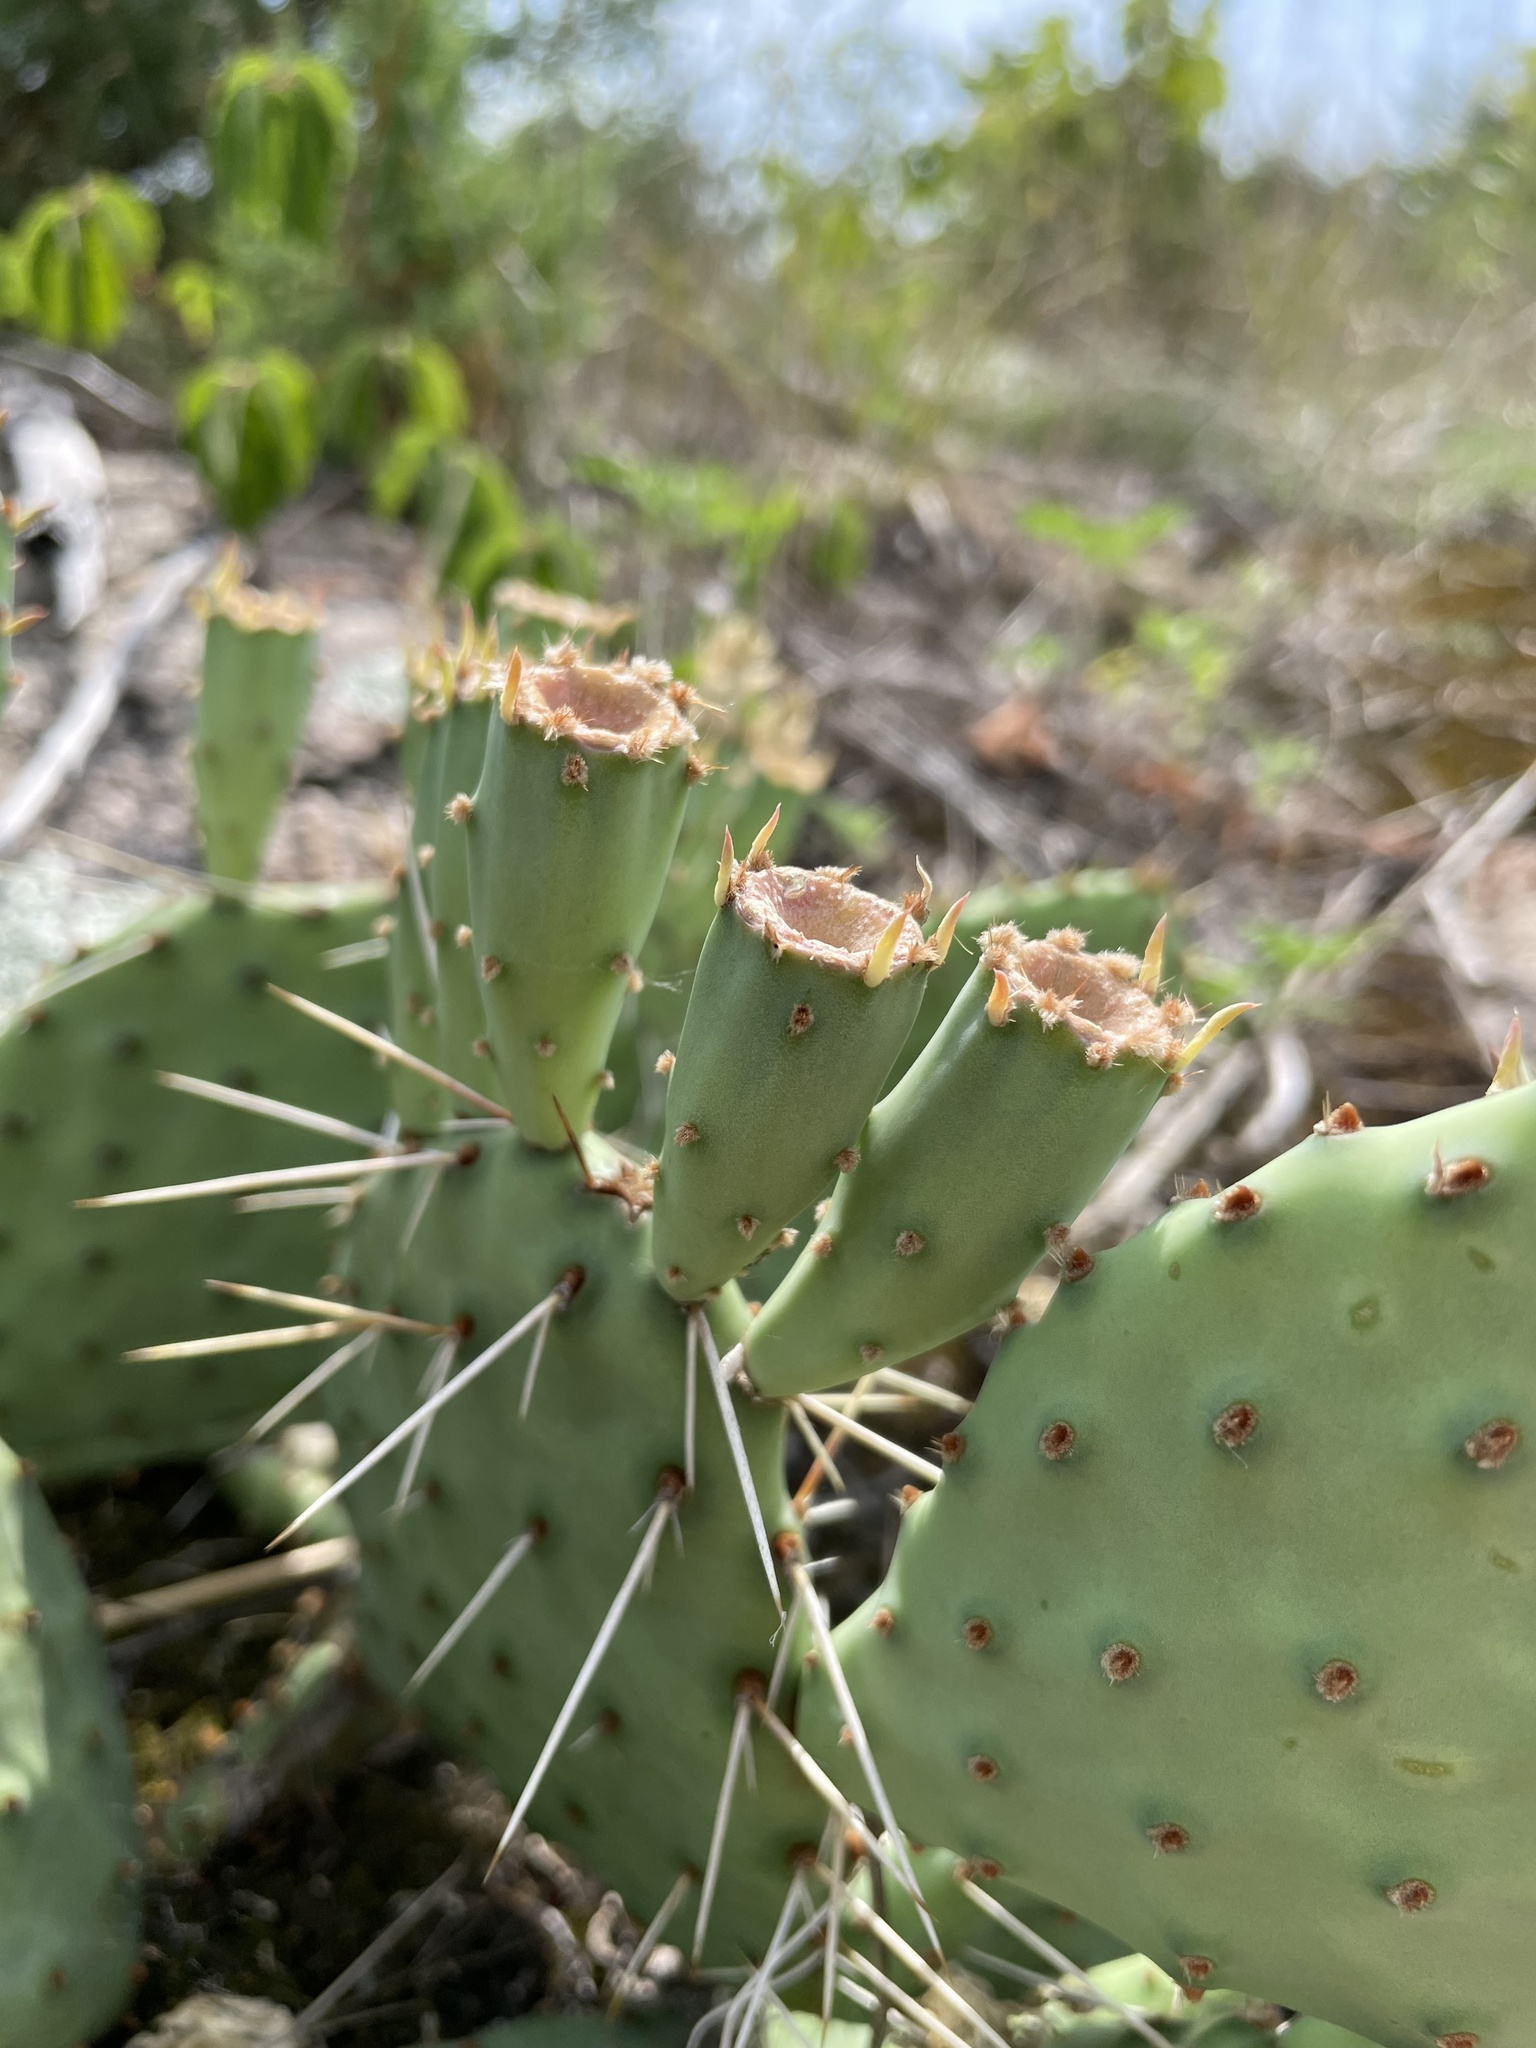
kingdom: Plantae
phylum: Tracheophyta
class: Magnoliopsida
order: Caryophyllales
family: Cactaceae
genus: Opuntia
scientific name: Opuntia macrorhiza
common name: Grassland pricklypear
